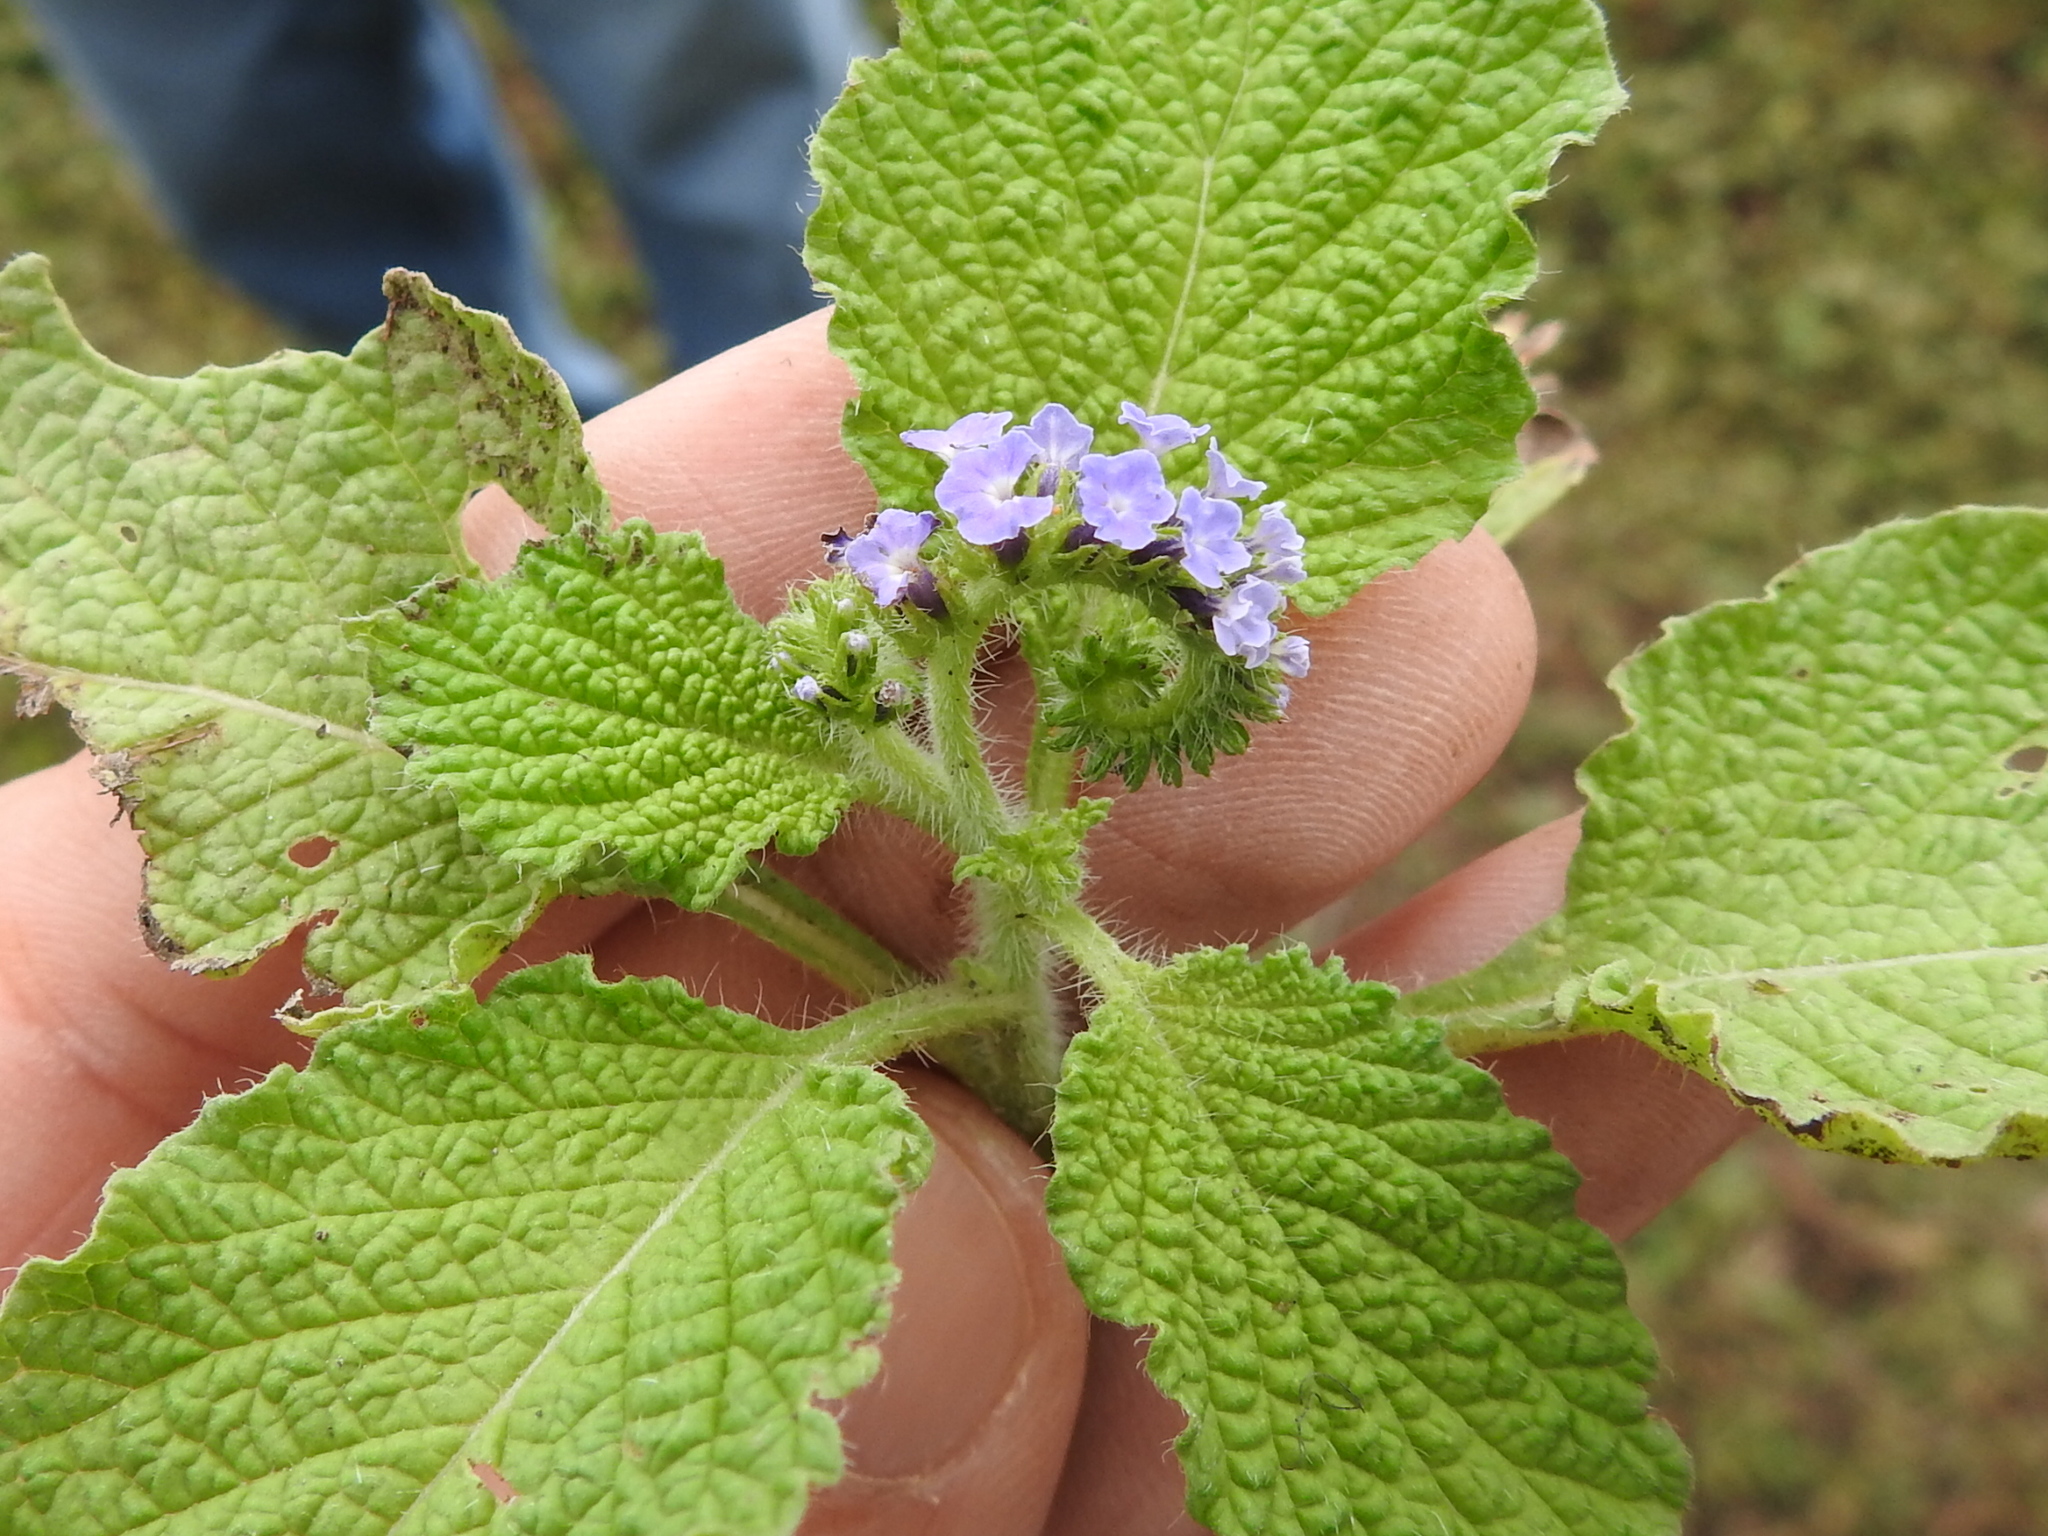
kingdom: Plantae
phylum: Tracheophyta
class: Magnoliopsida
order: Boraginales
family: Heliotropiaceae
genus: Heliotropium
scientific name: Heliotropium indicum
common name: Indian heliotrope
